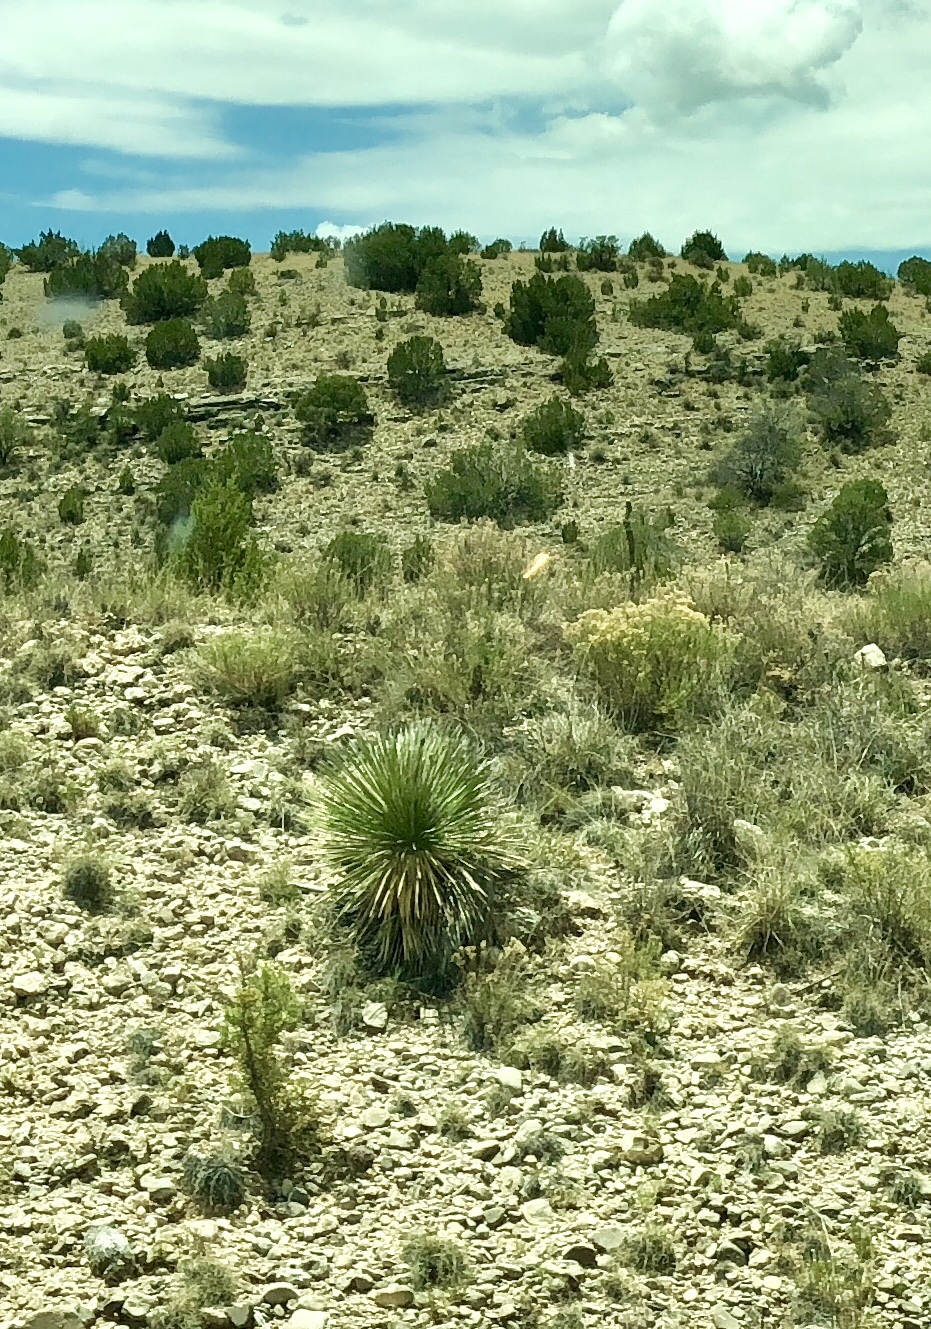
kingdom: Plantae
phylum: Tracheophyta
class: Liliopsida
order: Asparagales
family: Asparagaceae
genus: Yucca
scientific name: Yucca elata
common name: Palmella
